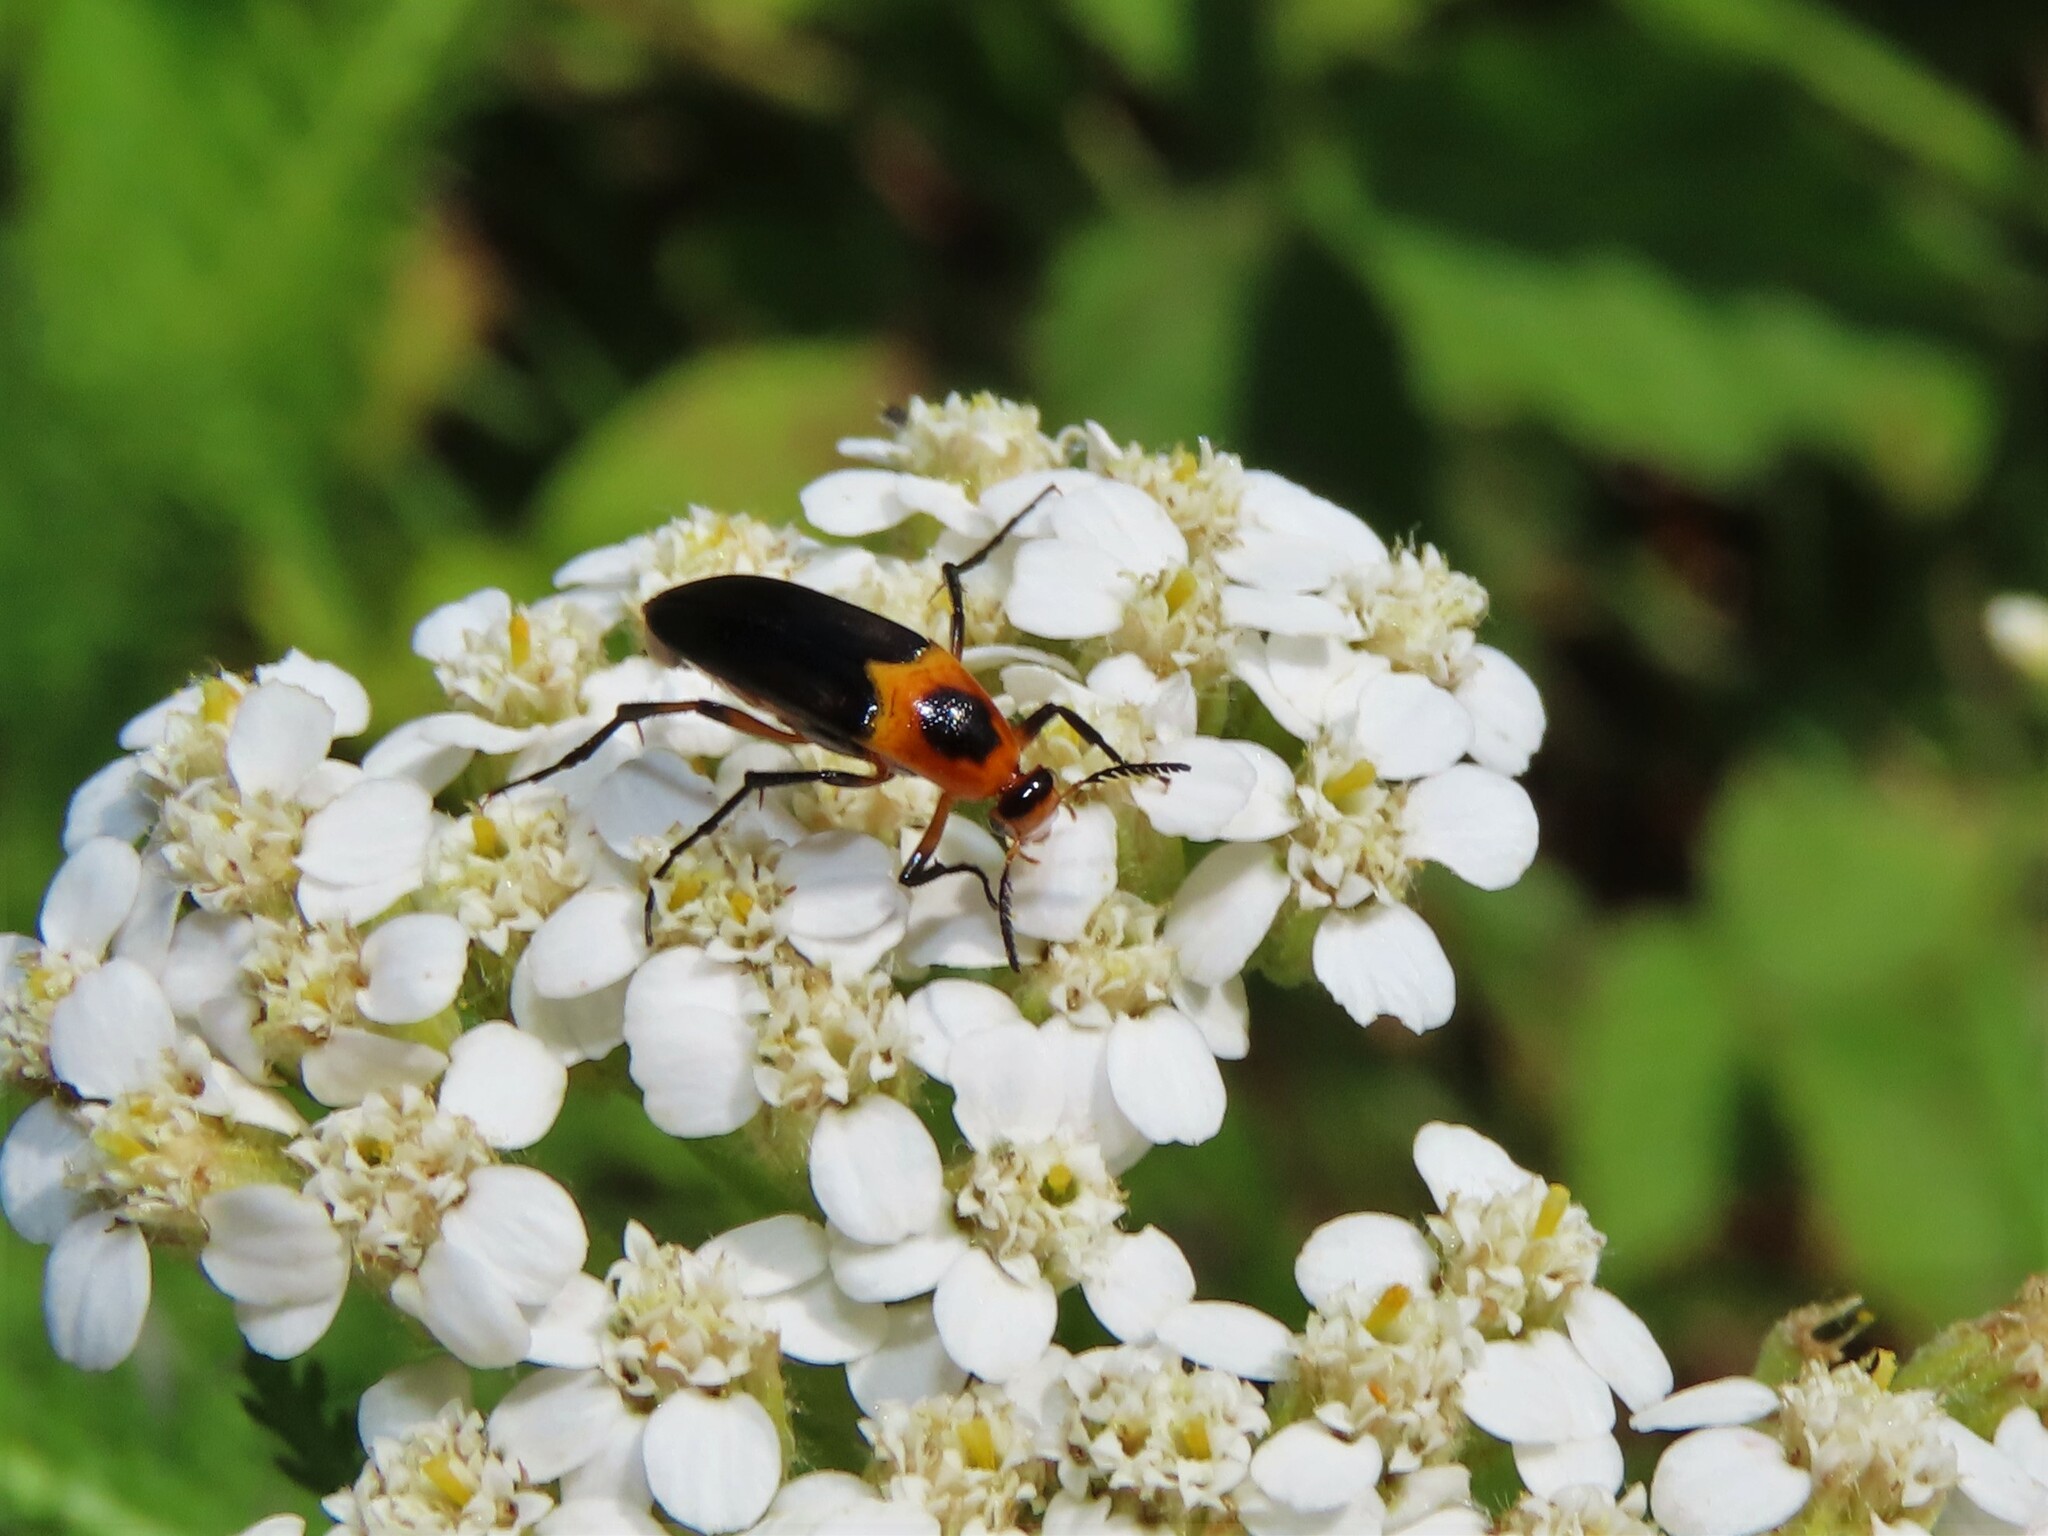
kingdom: Animalia
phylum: Arthropoda
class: Insecta
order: Coleoptera
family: Ripiphoridae
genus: Macrosiagon
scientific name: Macrosiagon limbatum
